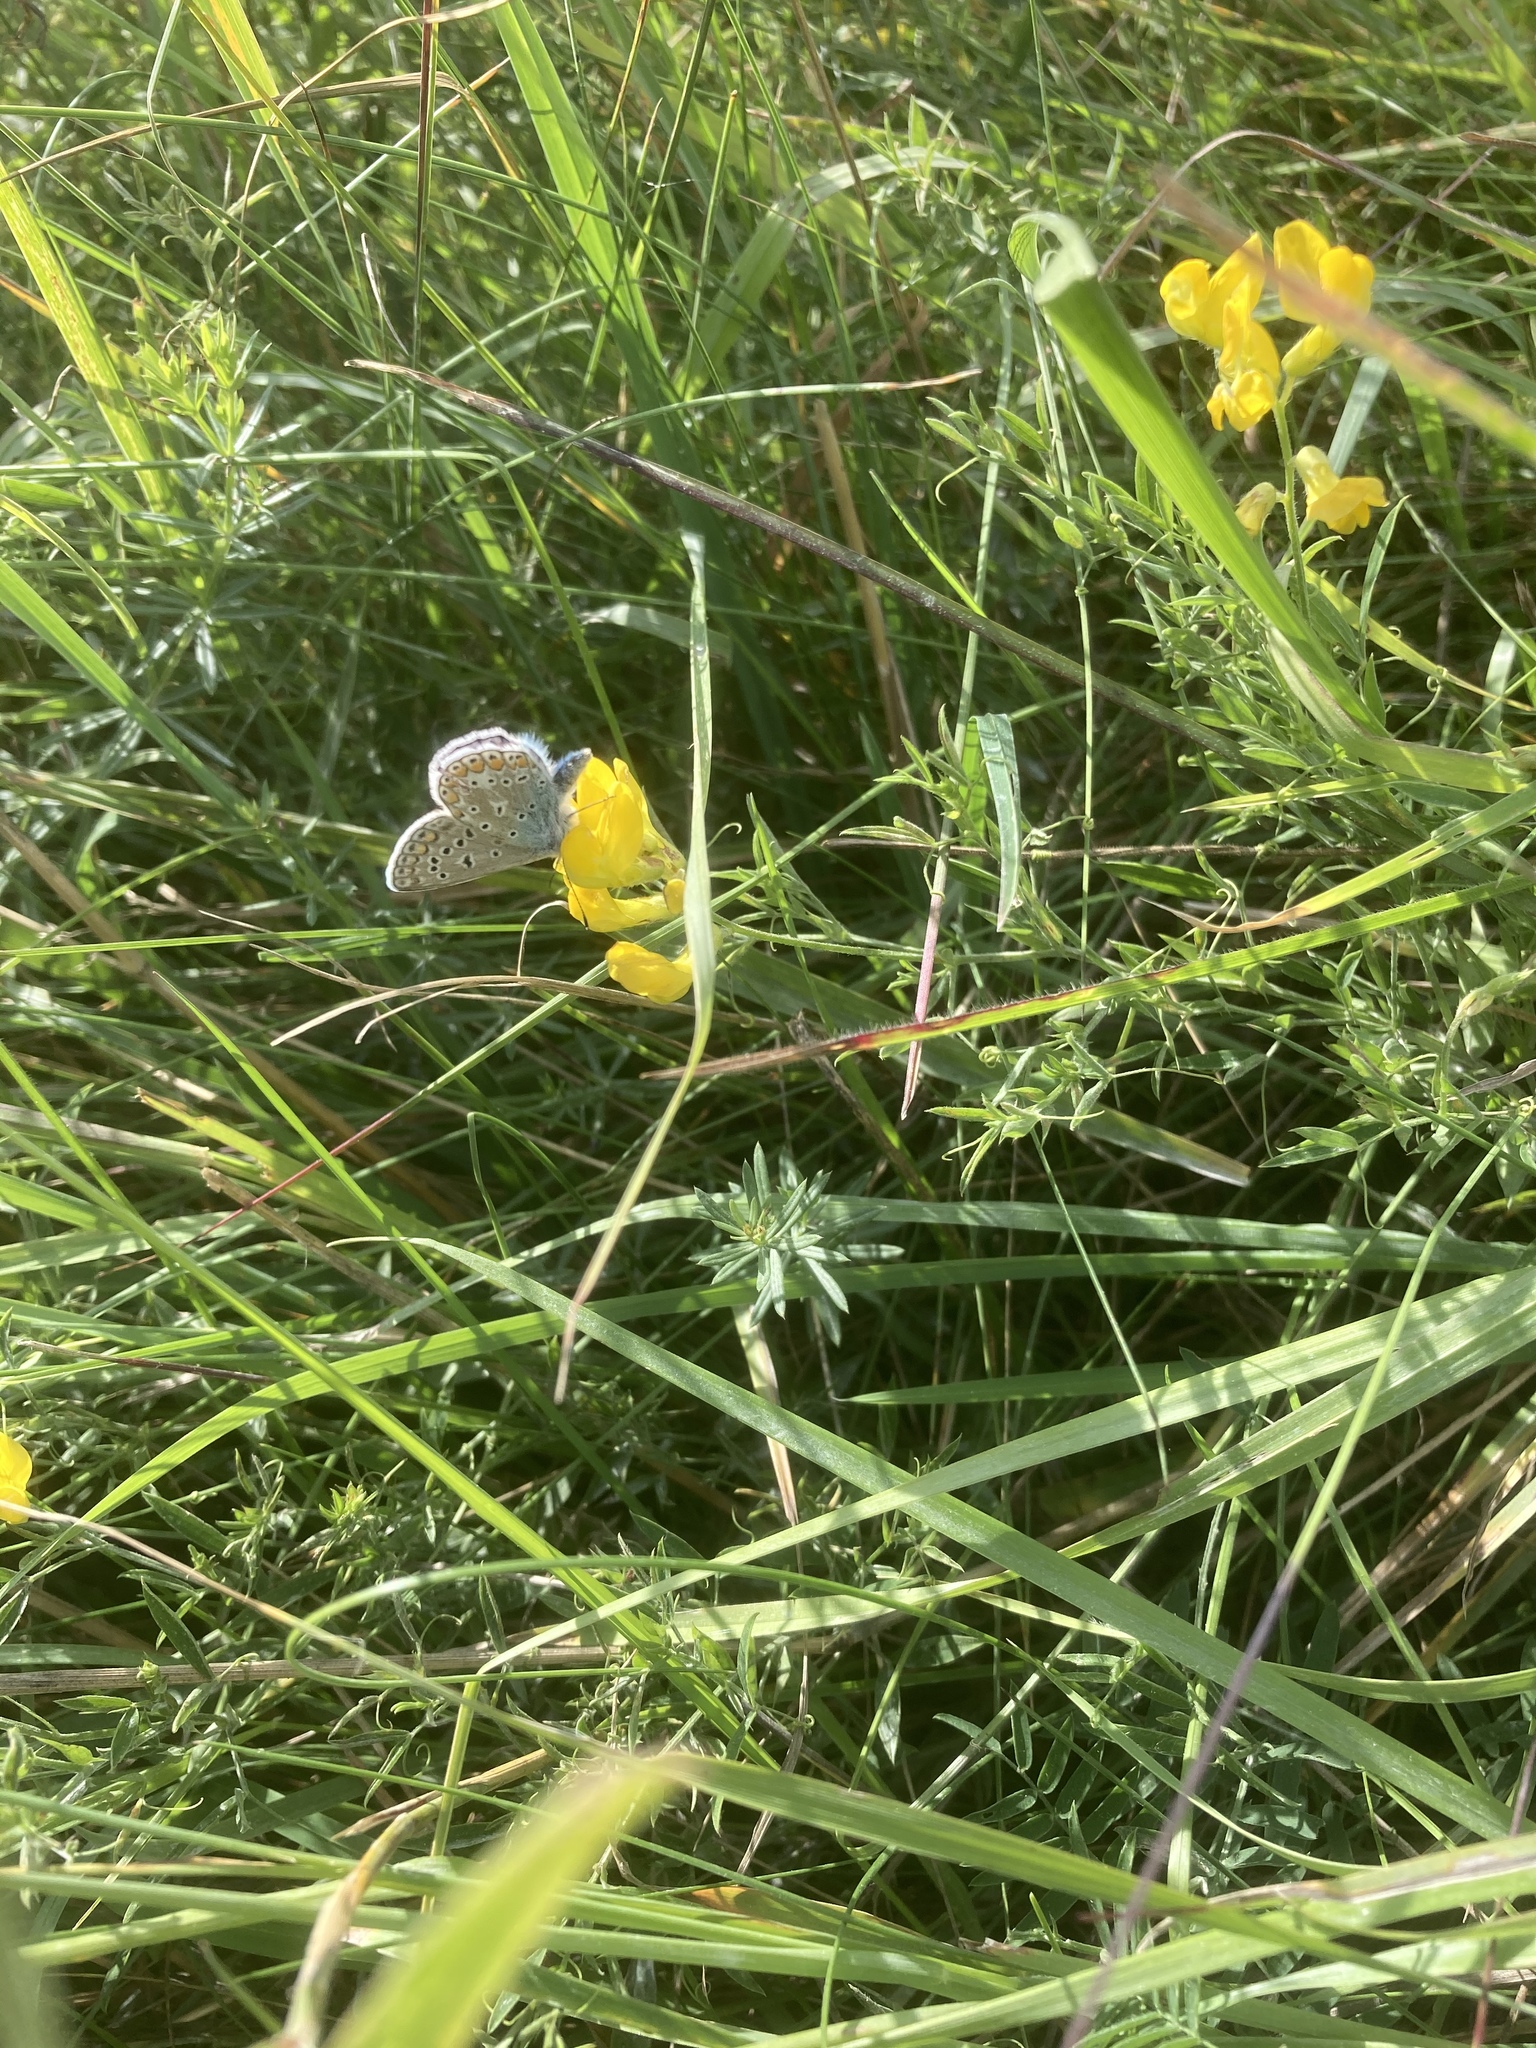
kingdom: Animalia
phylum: Arthropoda
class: Insecta
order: Lepidoptera
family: Lycaenidae
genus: Polyommatus
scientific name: Polyommatus icarus
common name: Common blue
